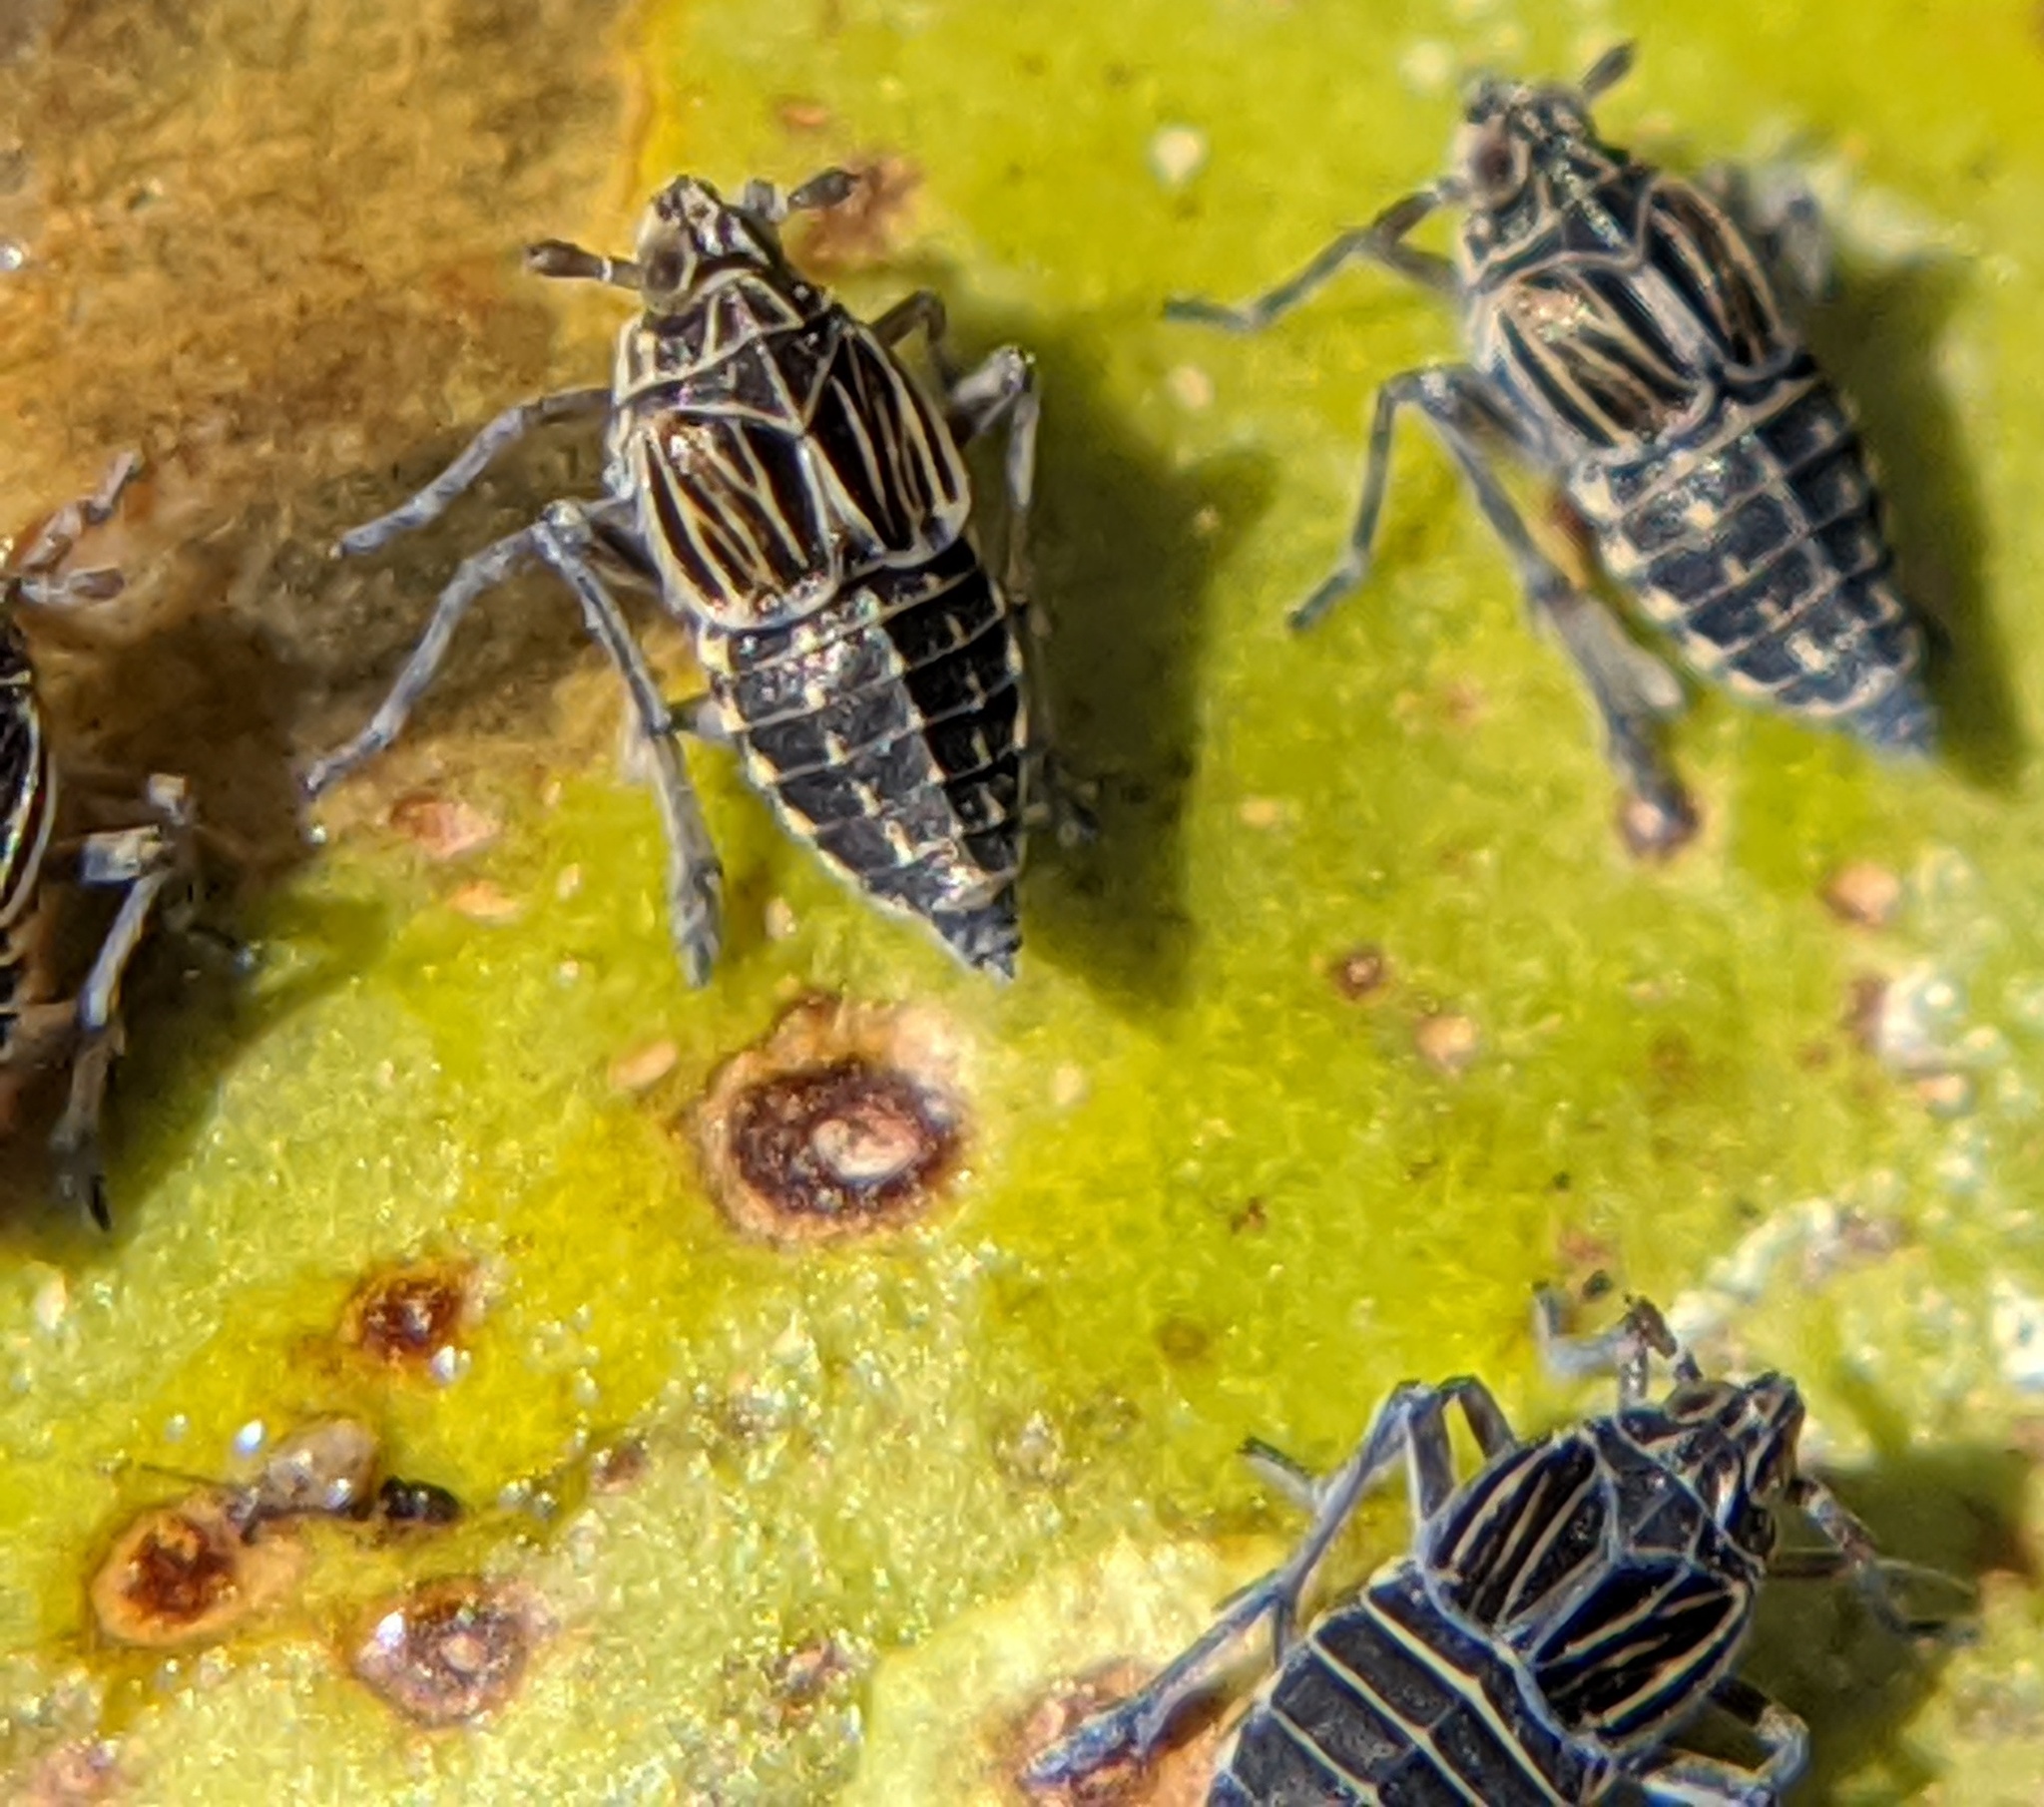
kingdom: Animalia
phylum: Arthropoda
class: Insecta
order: Hemiptera
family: Delphacidae
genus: Megamelus
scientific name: Megamelus davisi
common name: Planthopper
